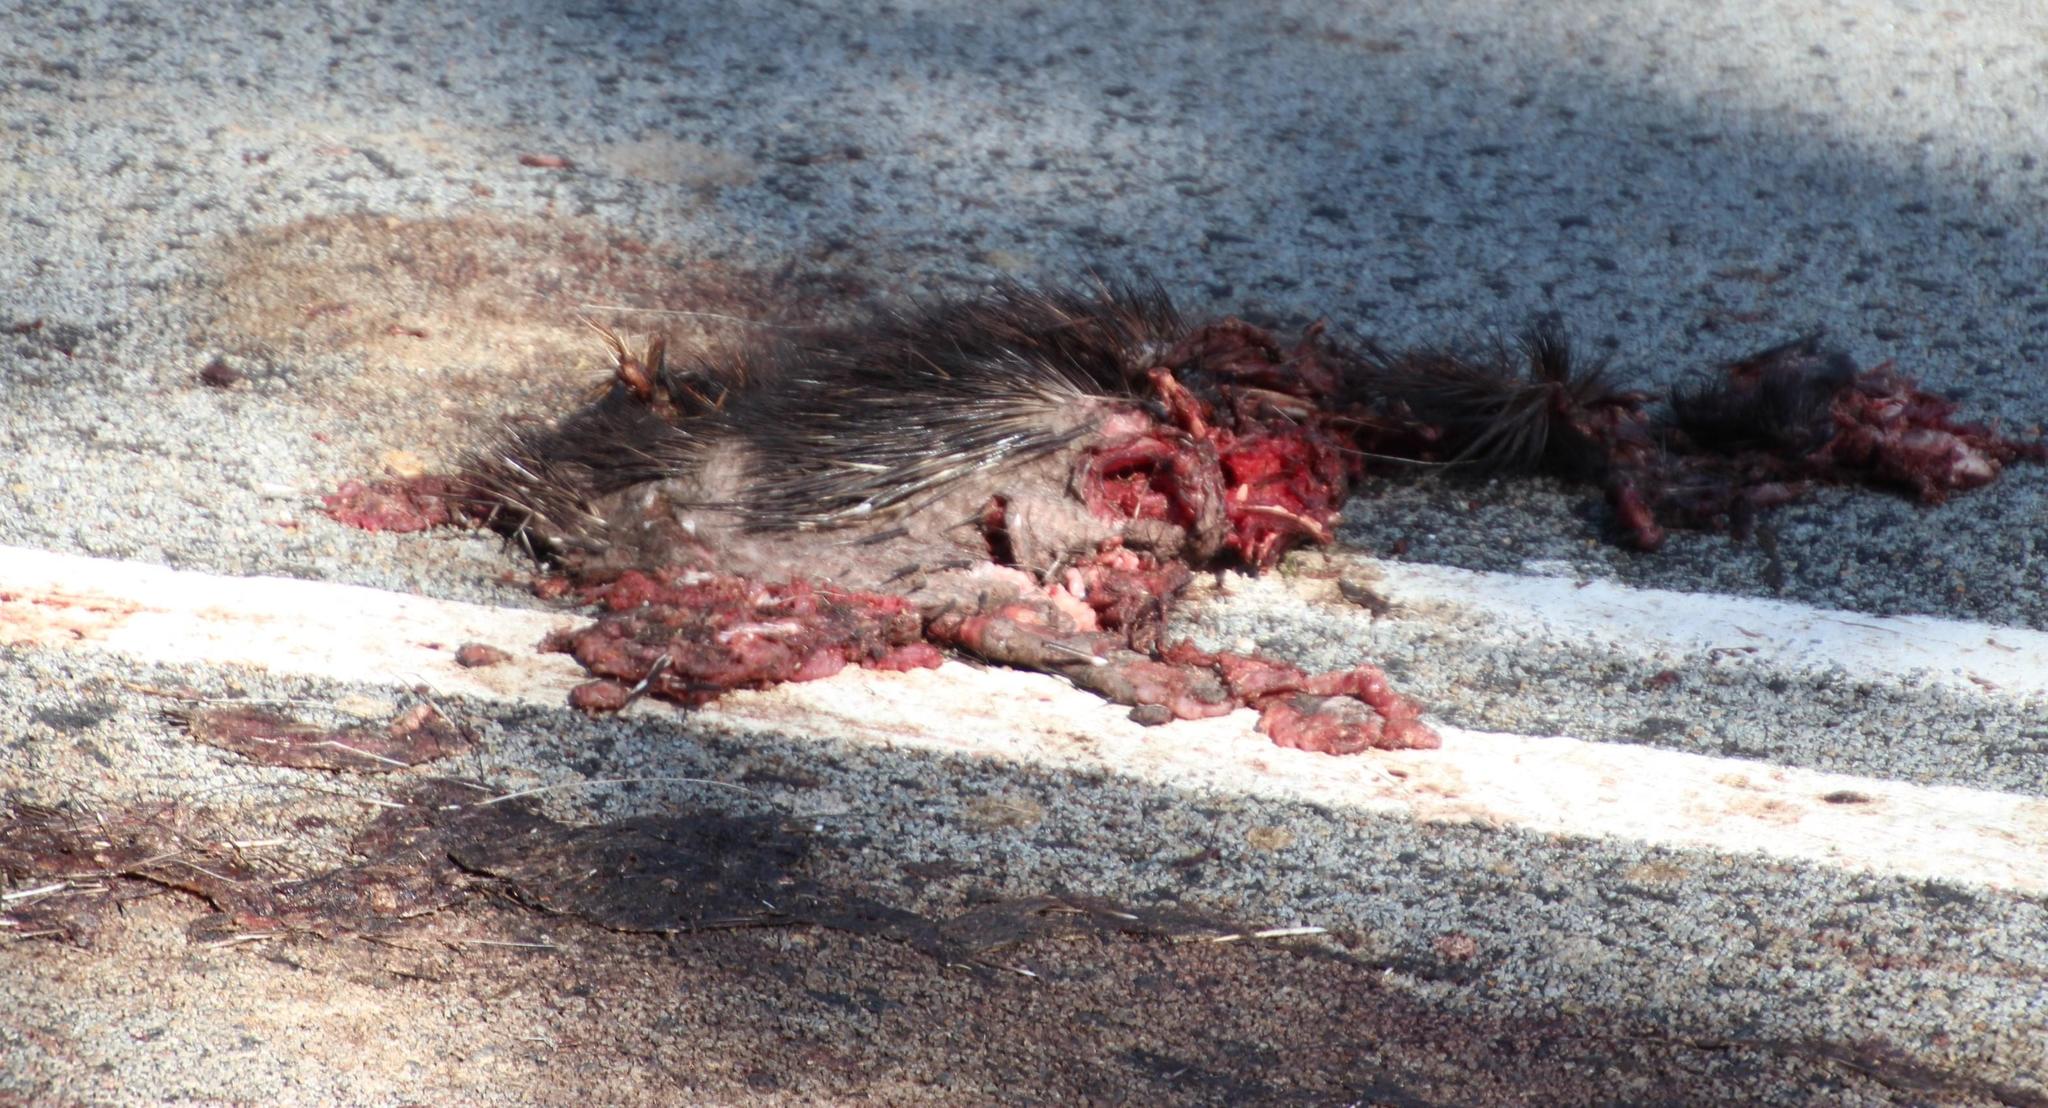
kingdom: Animalia
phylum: Chordata
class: Mammalia
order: Rodentia
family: Hystricidae
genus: Hystrix
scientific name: Hystrix africaeaustralis
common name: Cape porcupine
